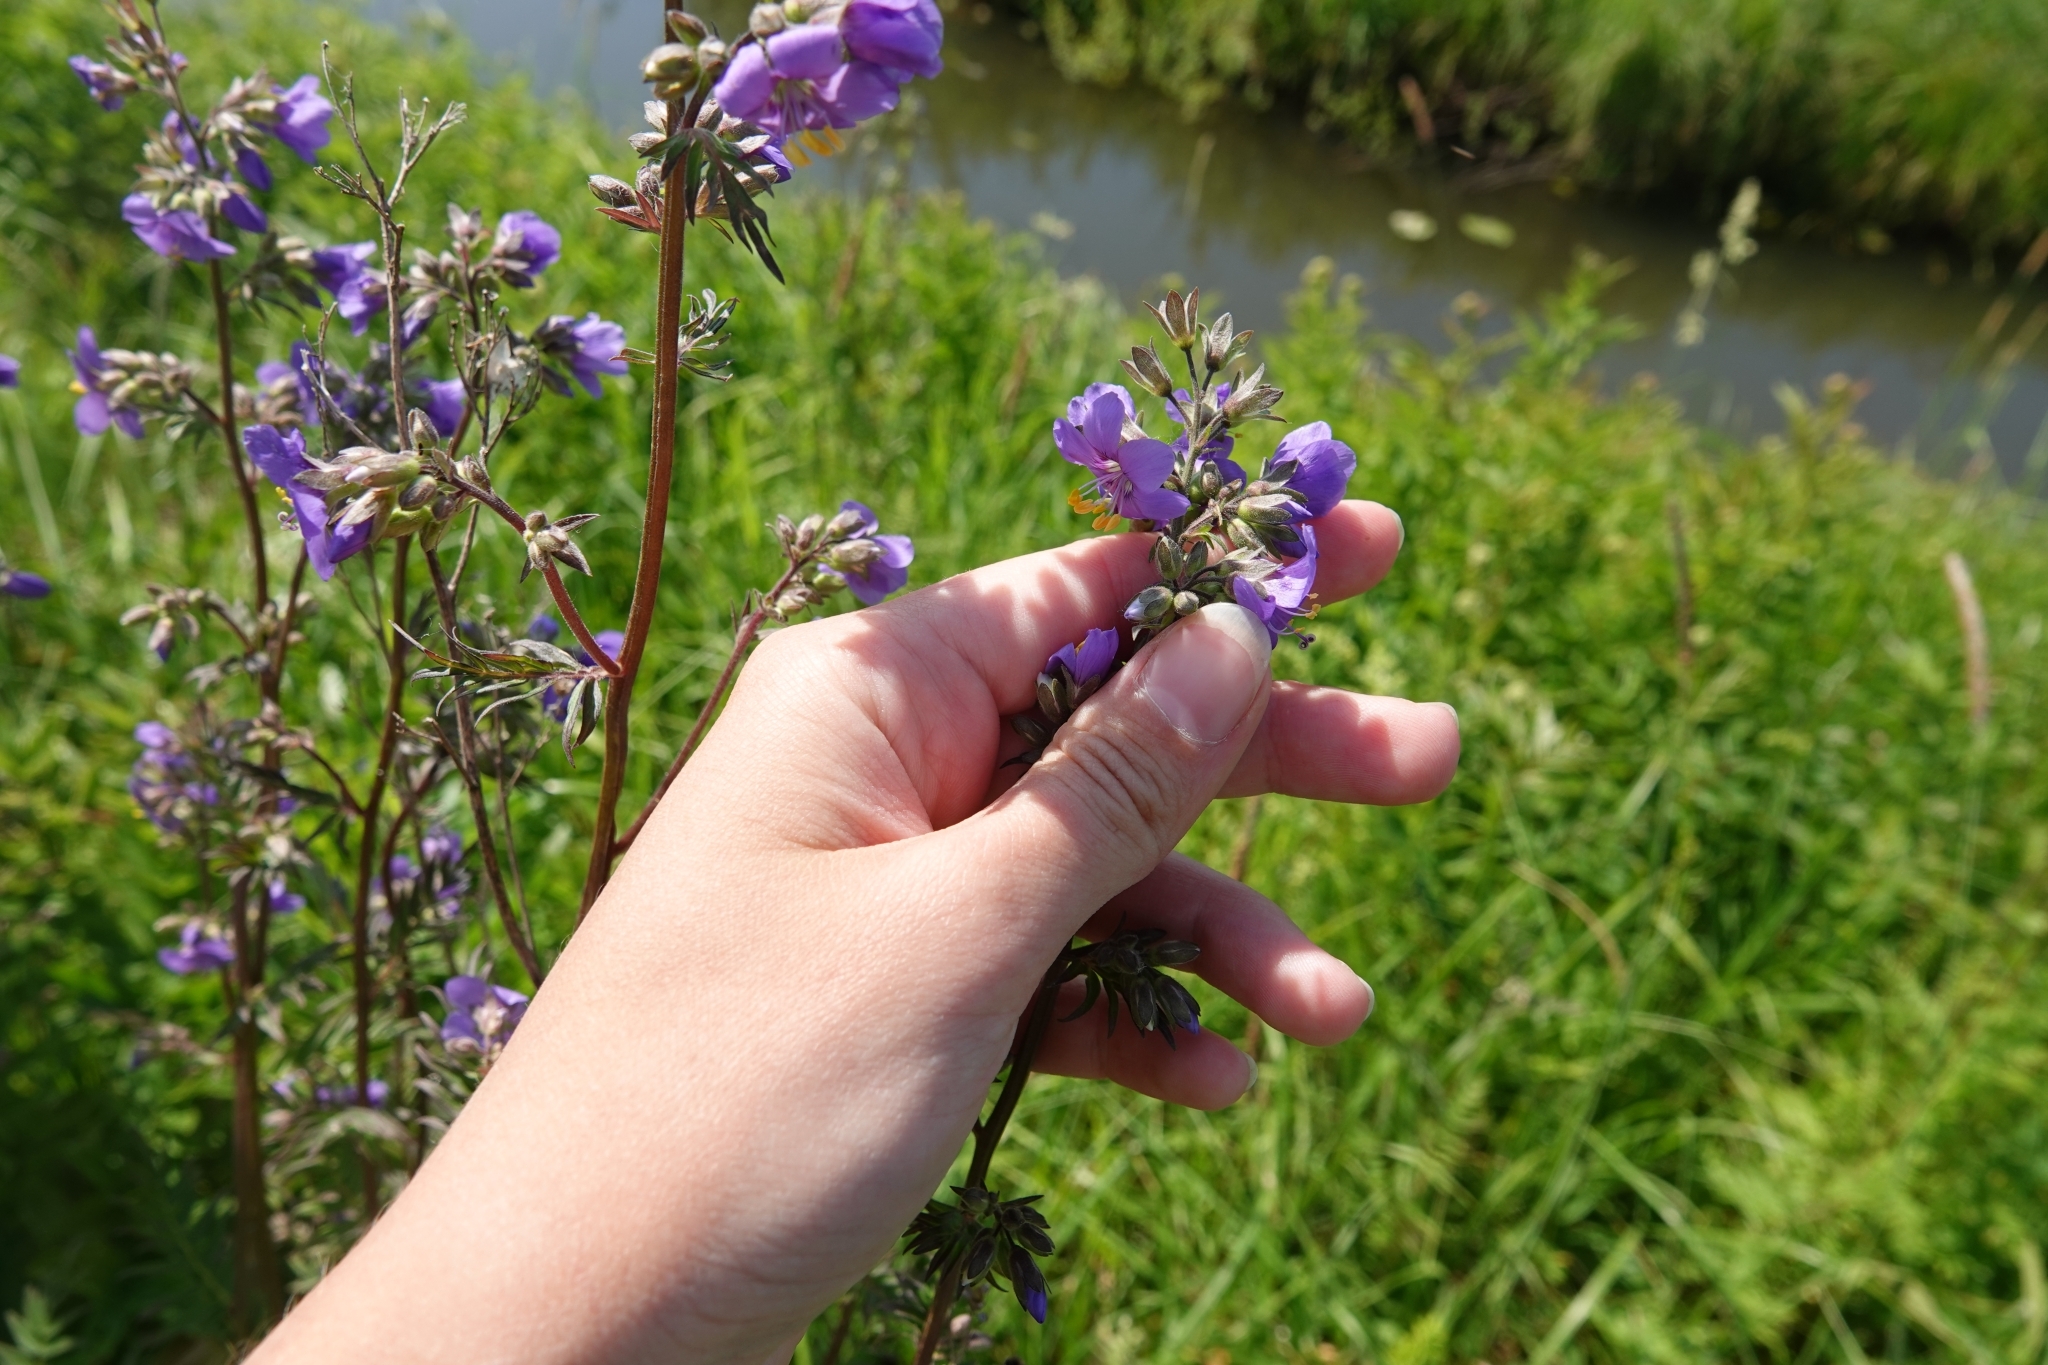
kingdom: Plantae
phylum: Tracheophyta
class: Magnoliopsida
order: Ericales
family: Polemoniaceae
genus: Polemonium
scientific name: Polemonium caeruleum
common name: Jacob's-ladder
